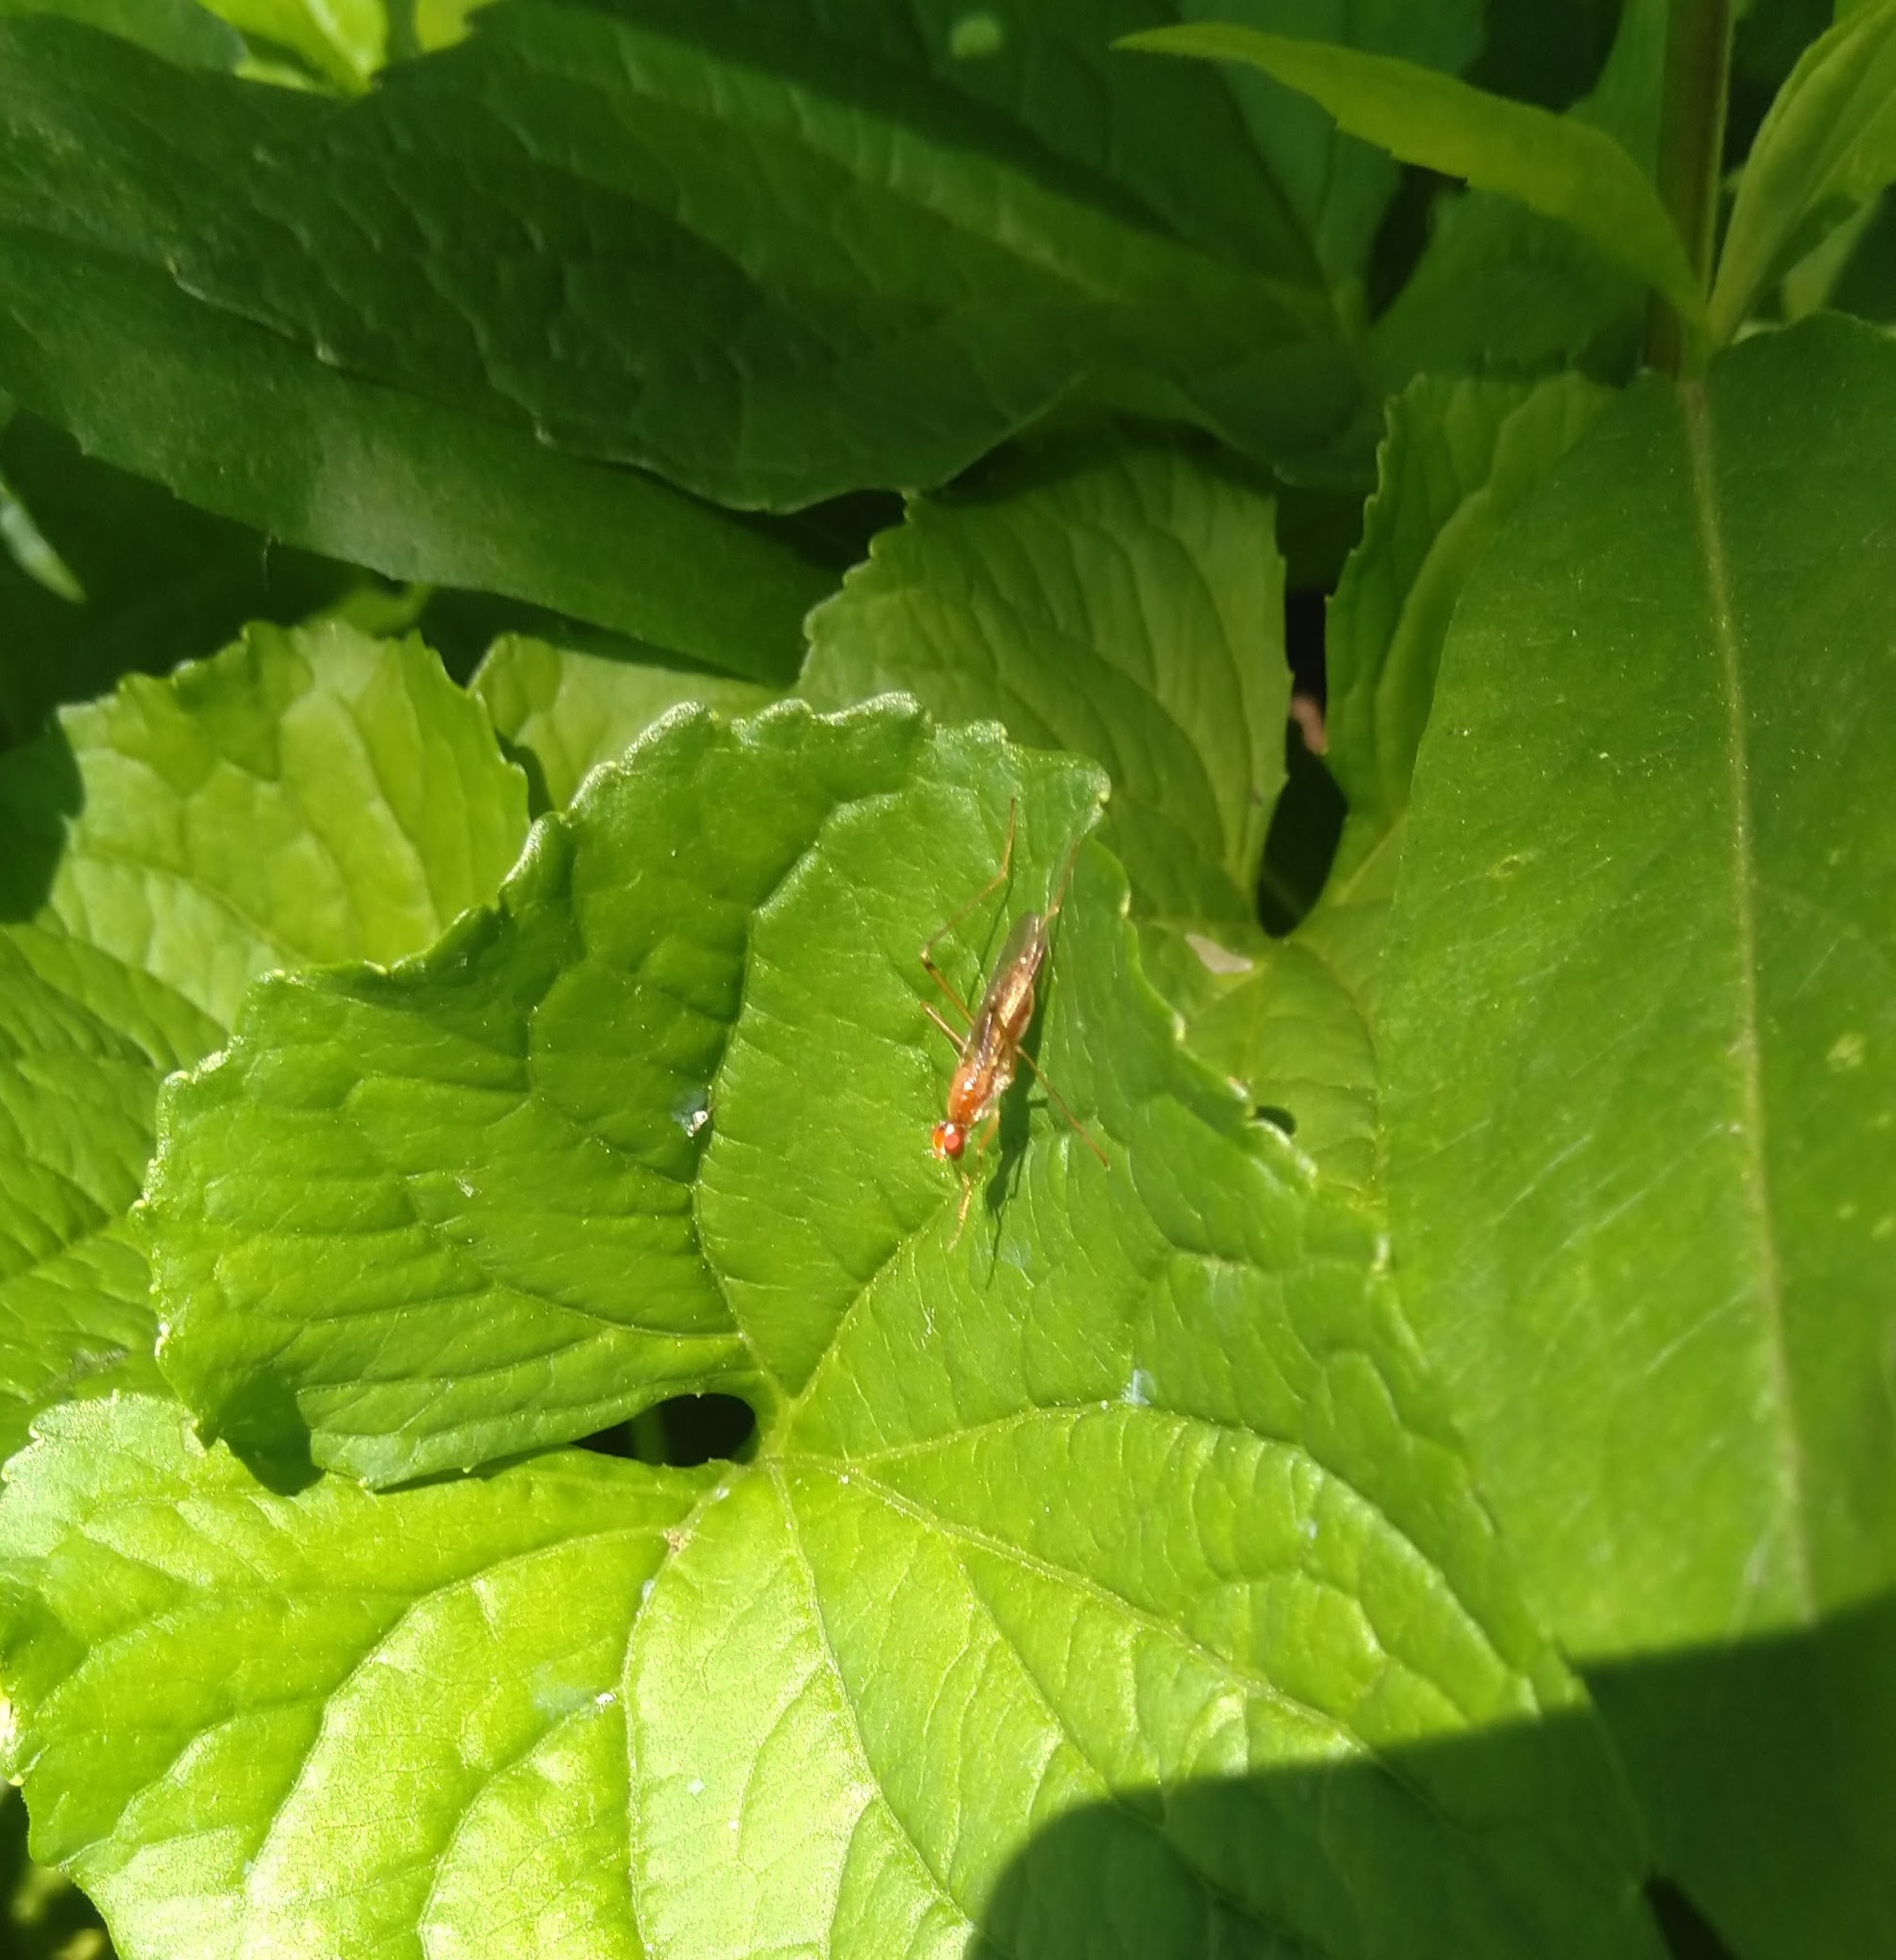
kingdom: Animalia
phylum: Arthropoda
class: Insecta
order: Diptera
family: Micropezidae
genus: Compsobata
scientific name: Compsobata univitta
